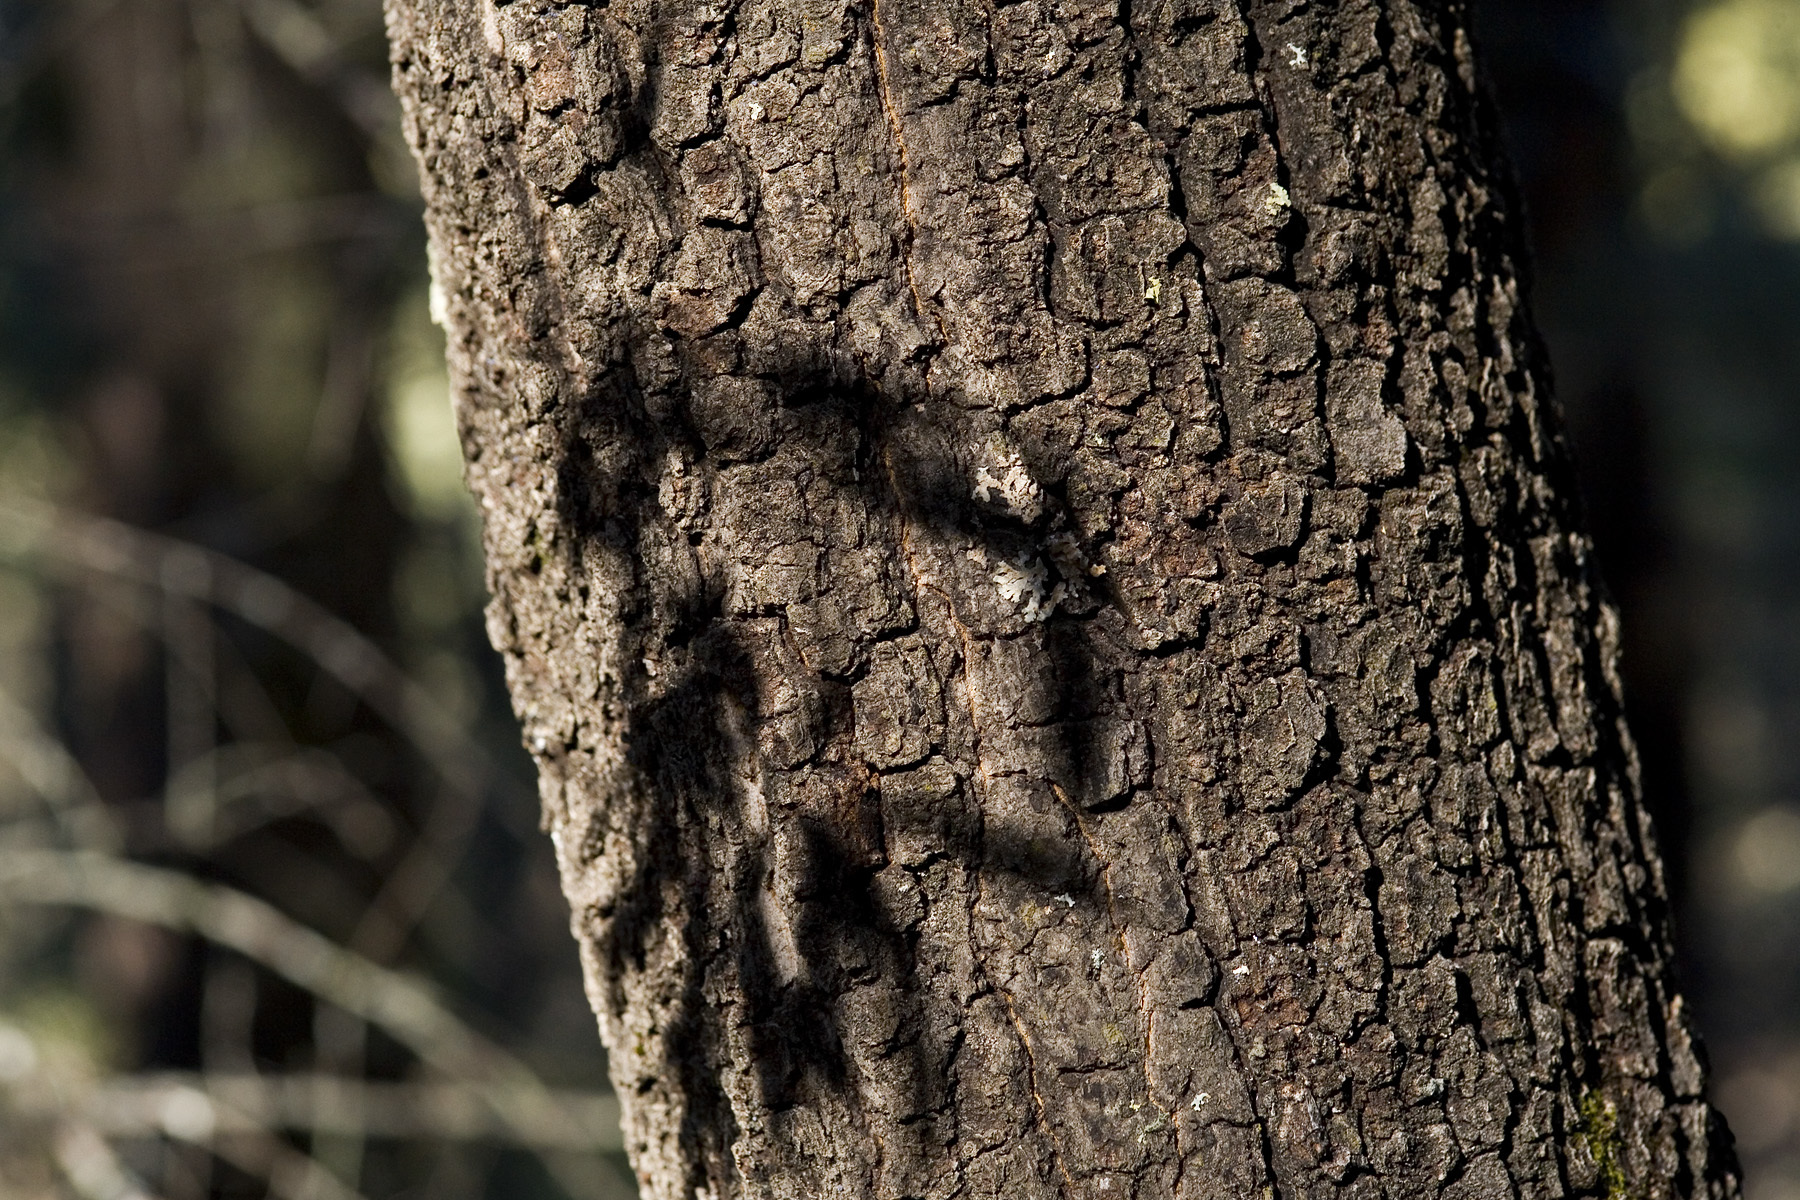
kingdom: Plantae
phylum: Tracheophyta
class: Magnoliopsida
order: Fagales
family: Fagaceae
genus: Quercus
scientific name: Quercus hypoleucoides
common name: Silverleaf oak
